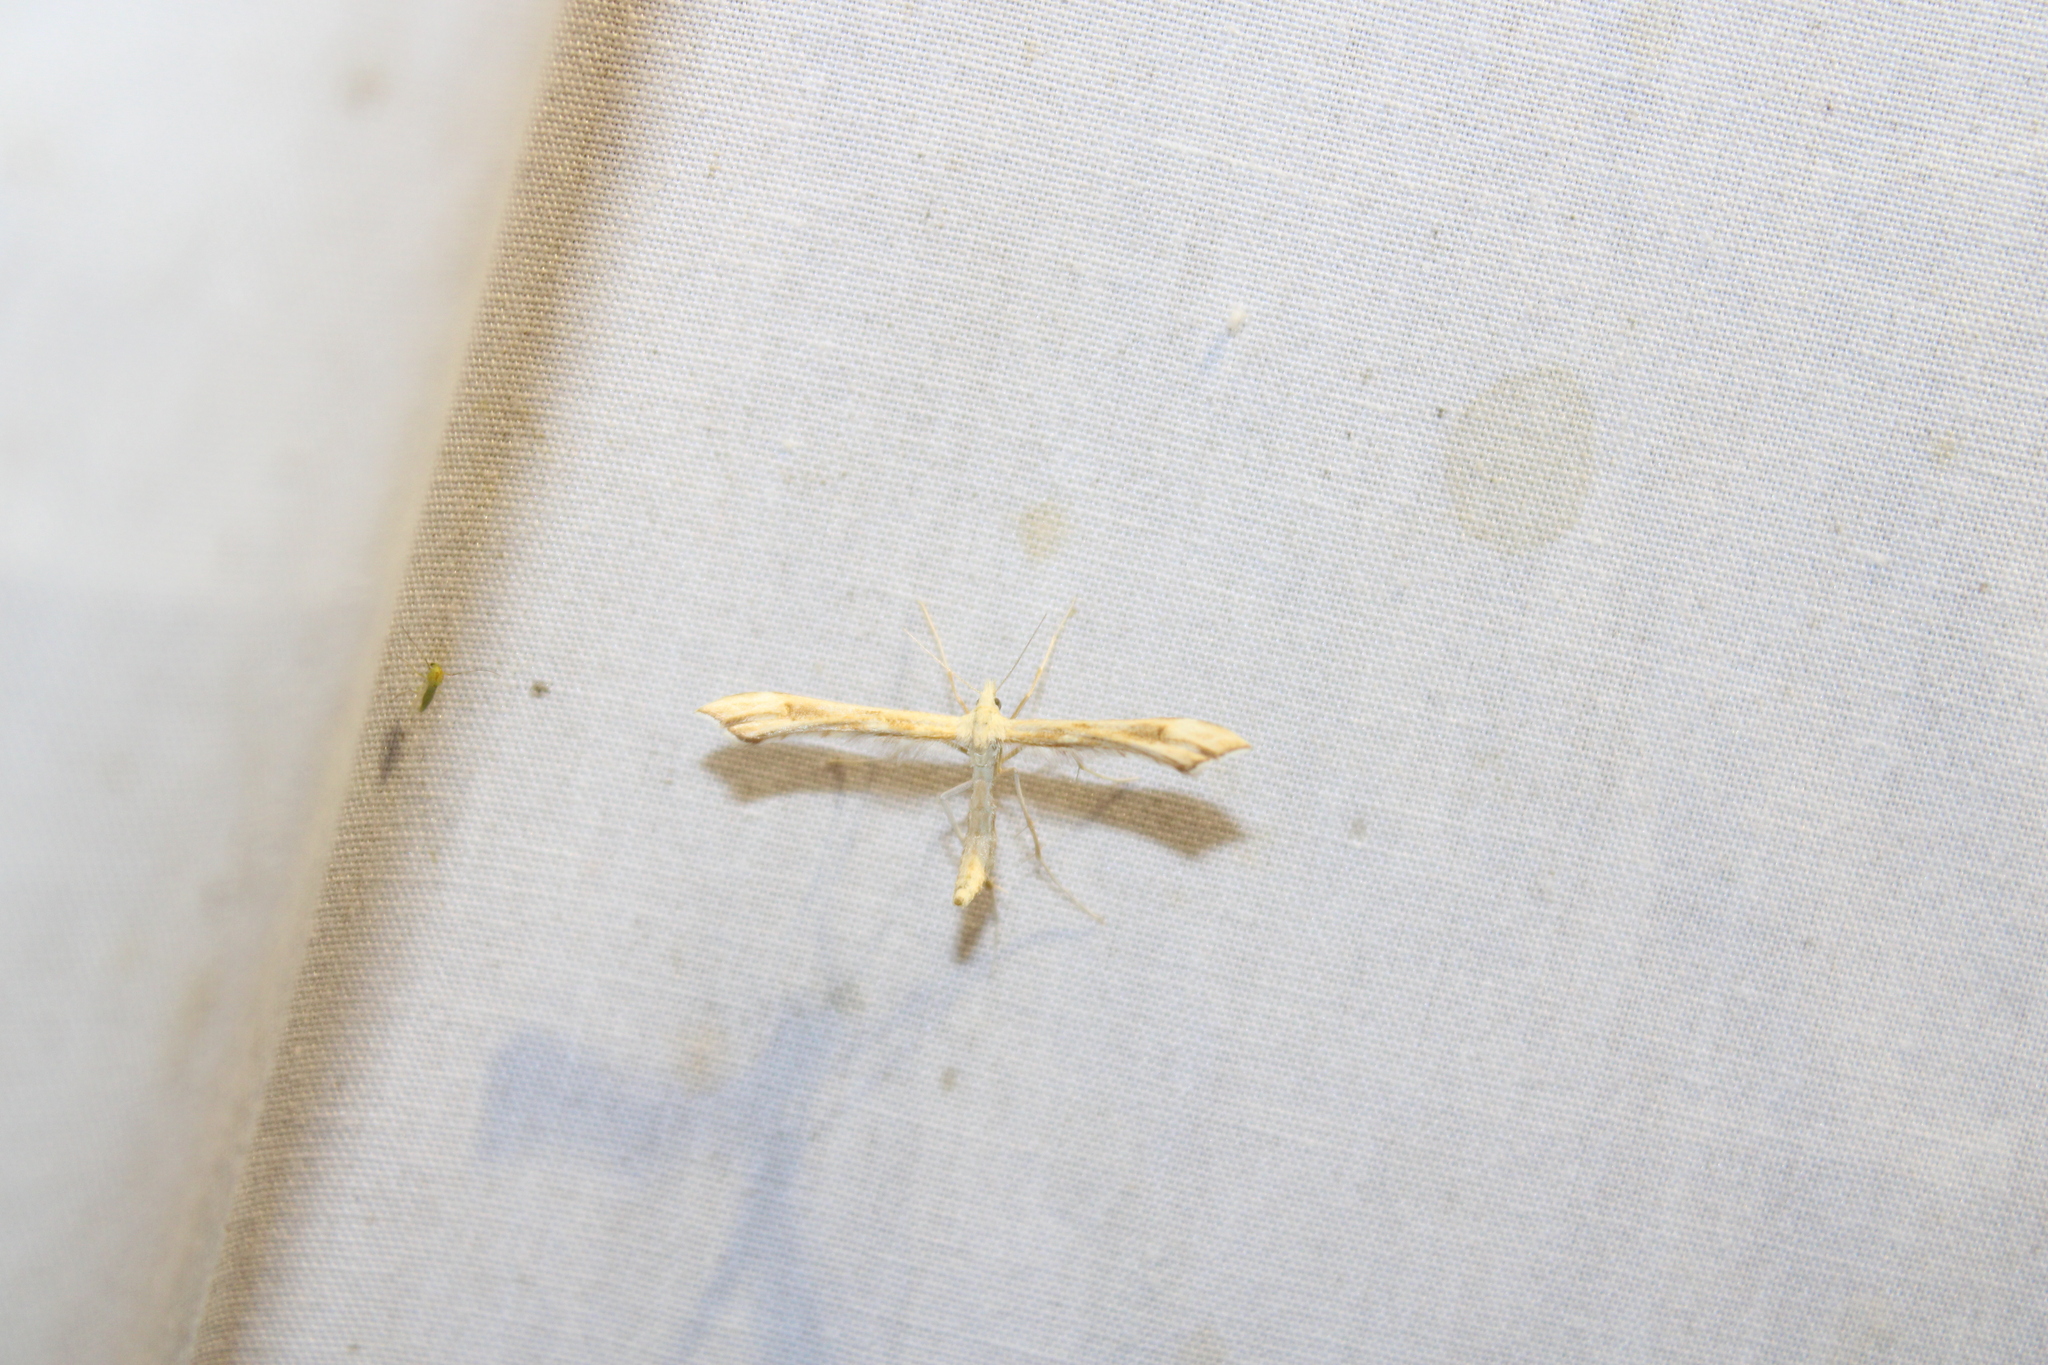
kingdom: Animalia
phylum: Arthropoda
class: Insecta
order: Lepidoptera
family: Pterophoridae
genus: Gillmeria
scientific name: Gillmeria pallidactyla
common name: Yarrow plume
